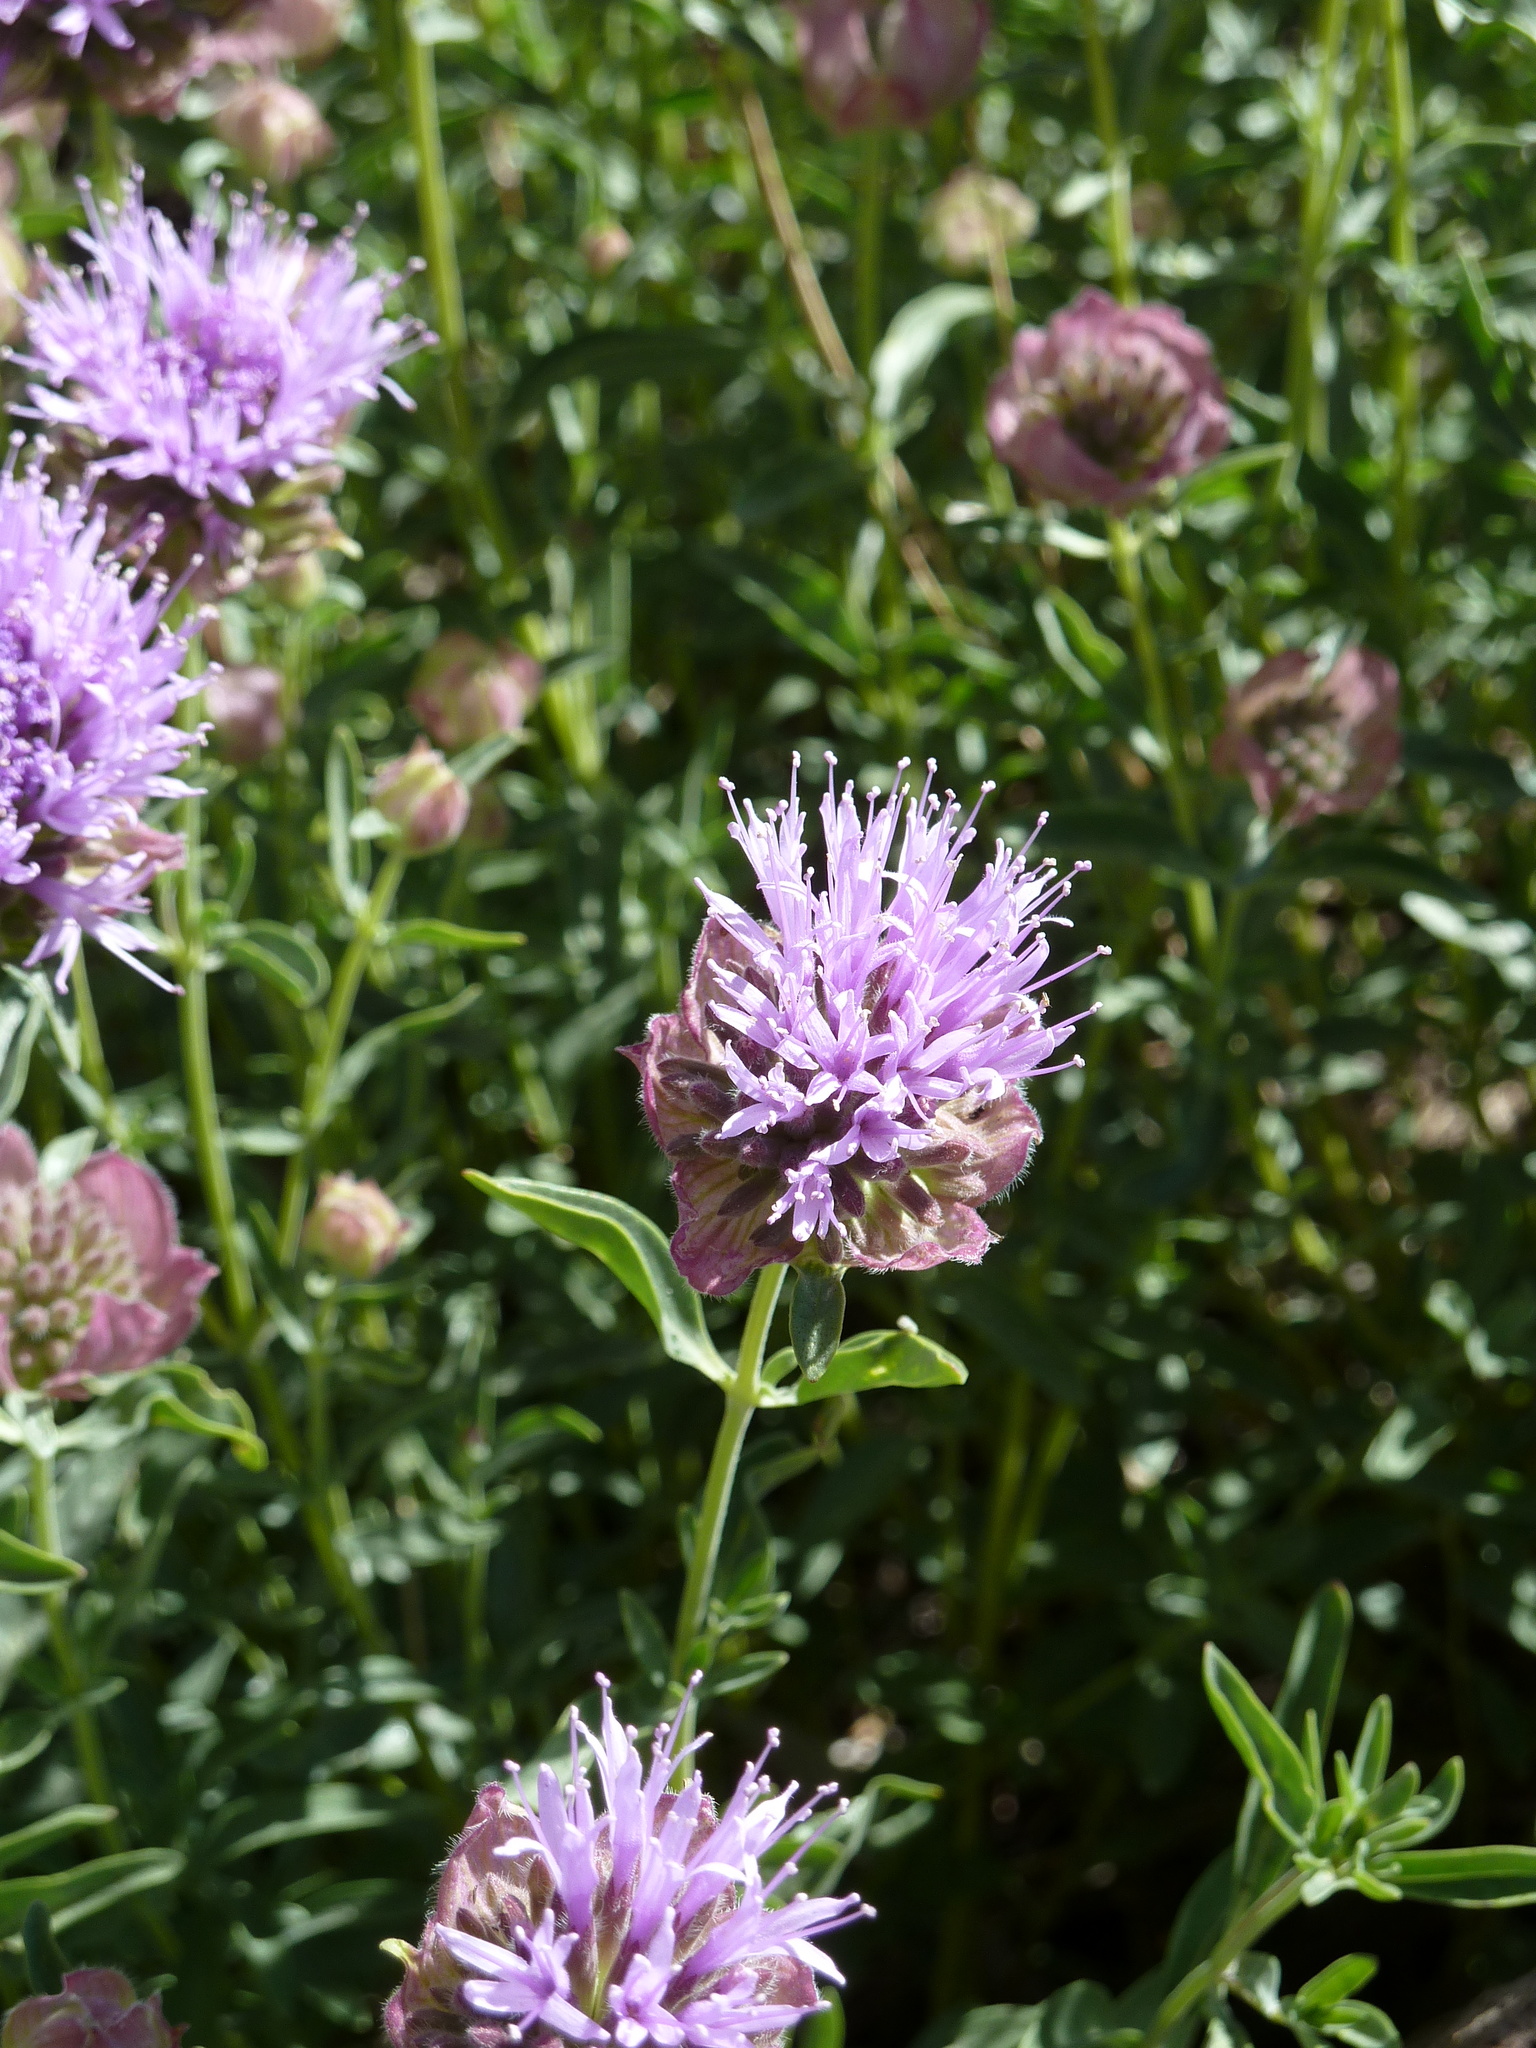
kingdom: Plantae
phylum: Tracheophyta
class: Magnoliopsida
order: Lamiales
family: Lamiaceae
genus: Monardella
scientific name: Monardella odoratissima
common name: Pacific monardella
